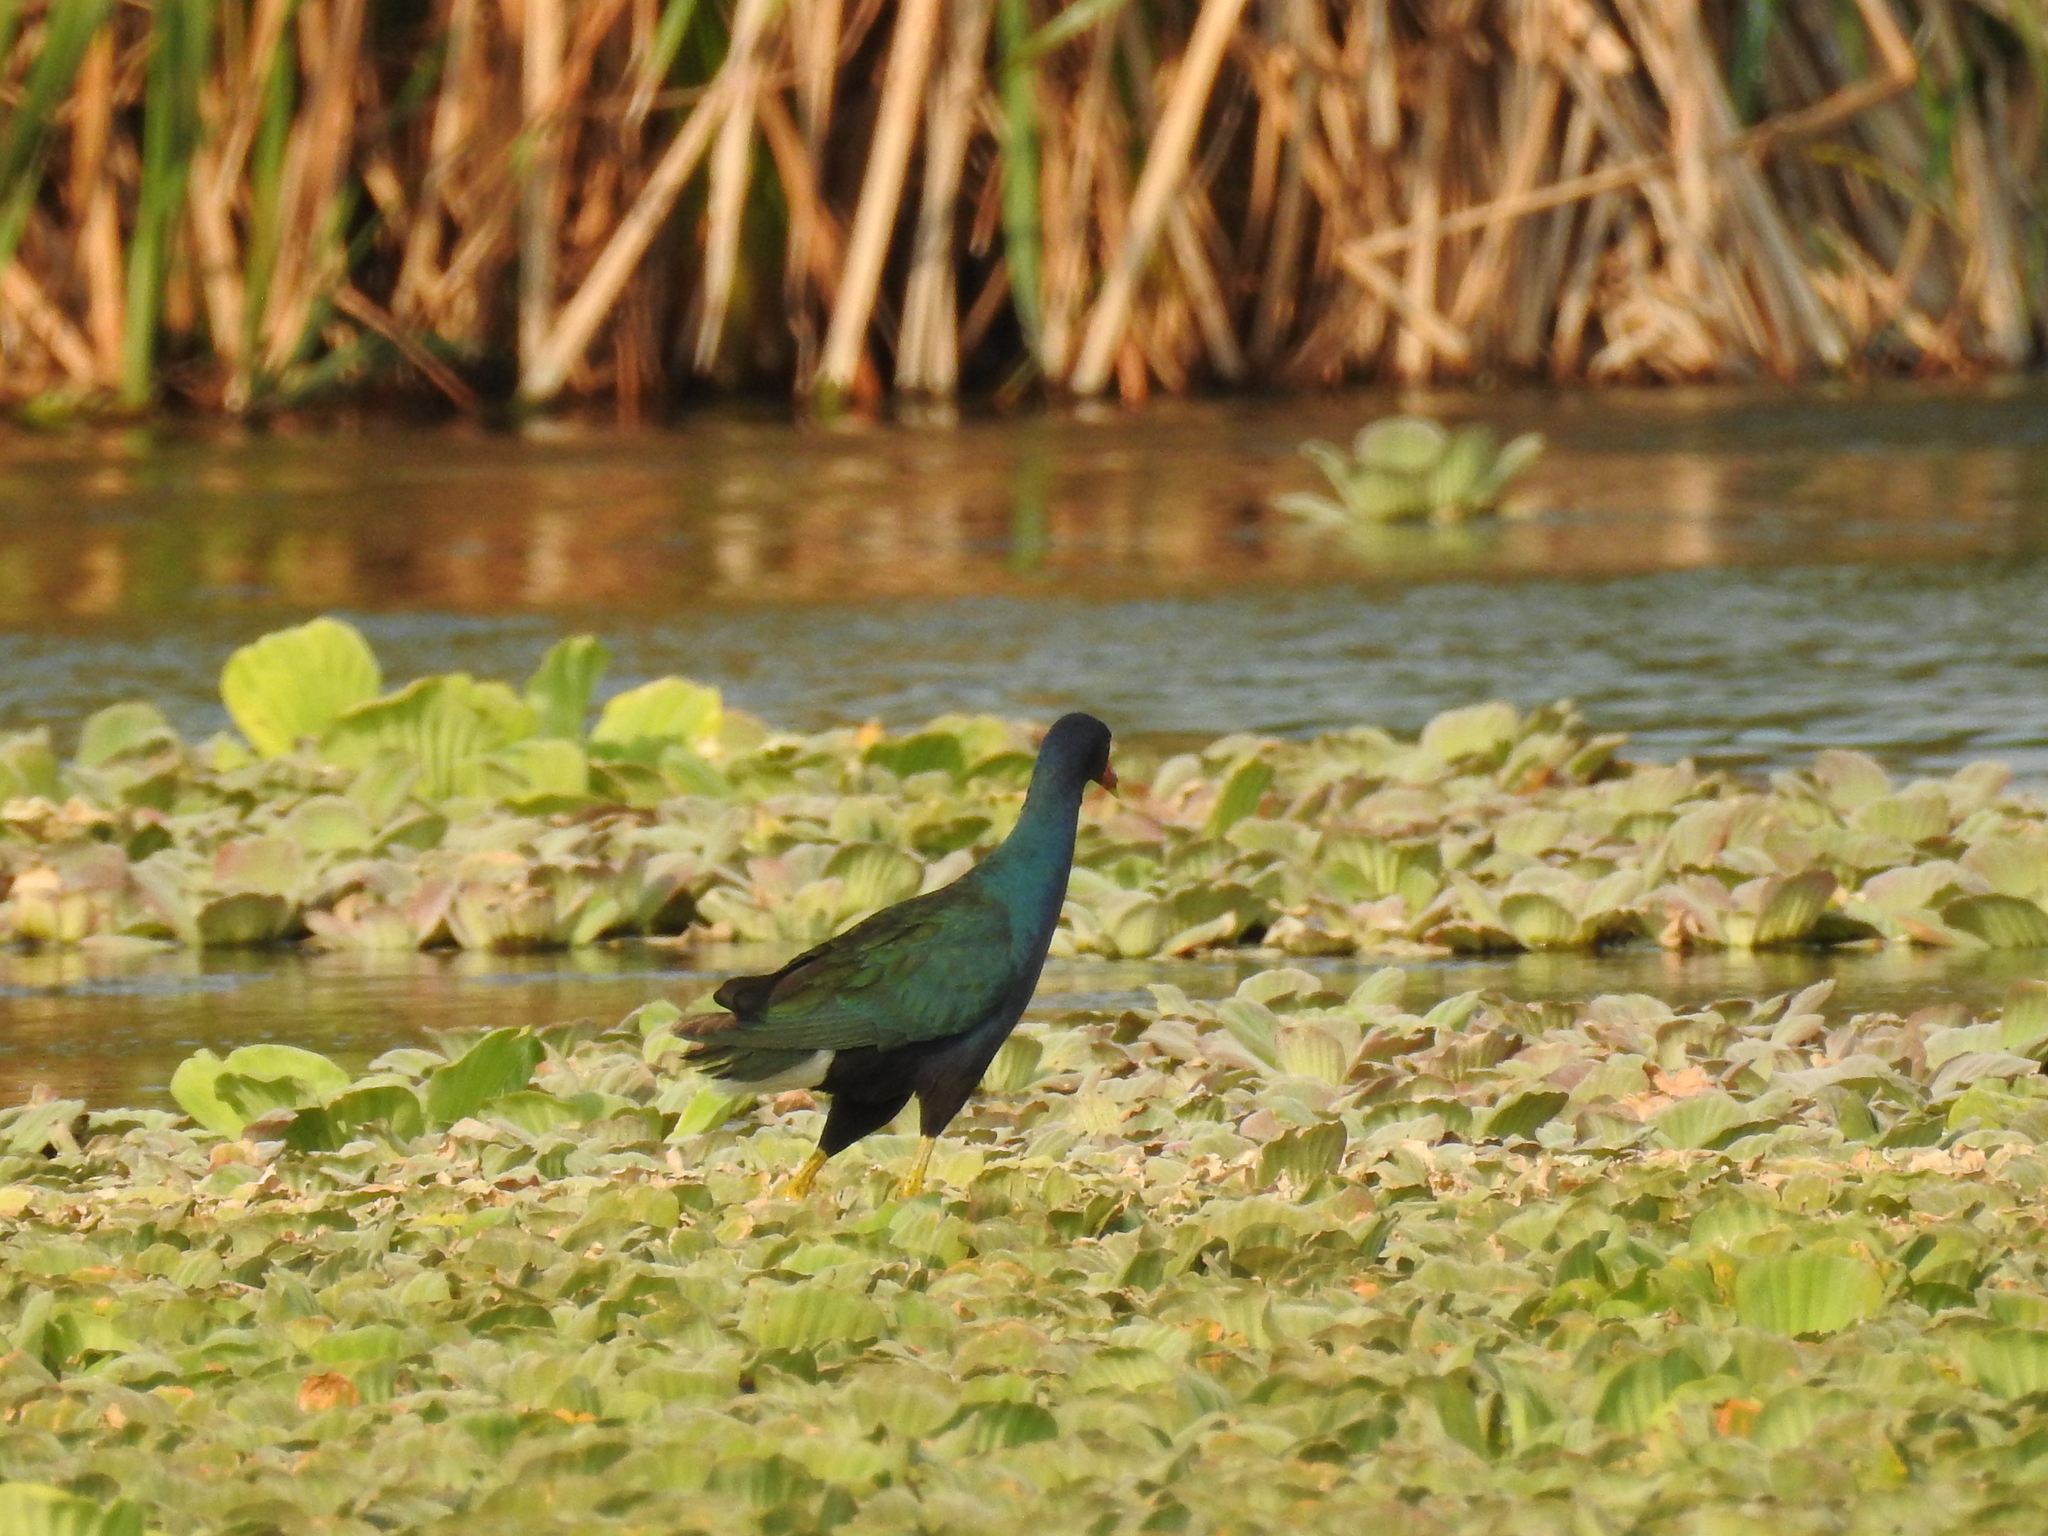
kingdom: Animalia
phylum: Chordata
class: Aves
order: Gruiformes
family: Rallidae
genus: Porphyrio
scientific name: Porphyrio martinica
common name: Purple gallinule
